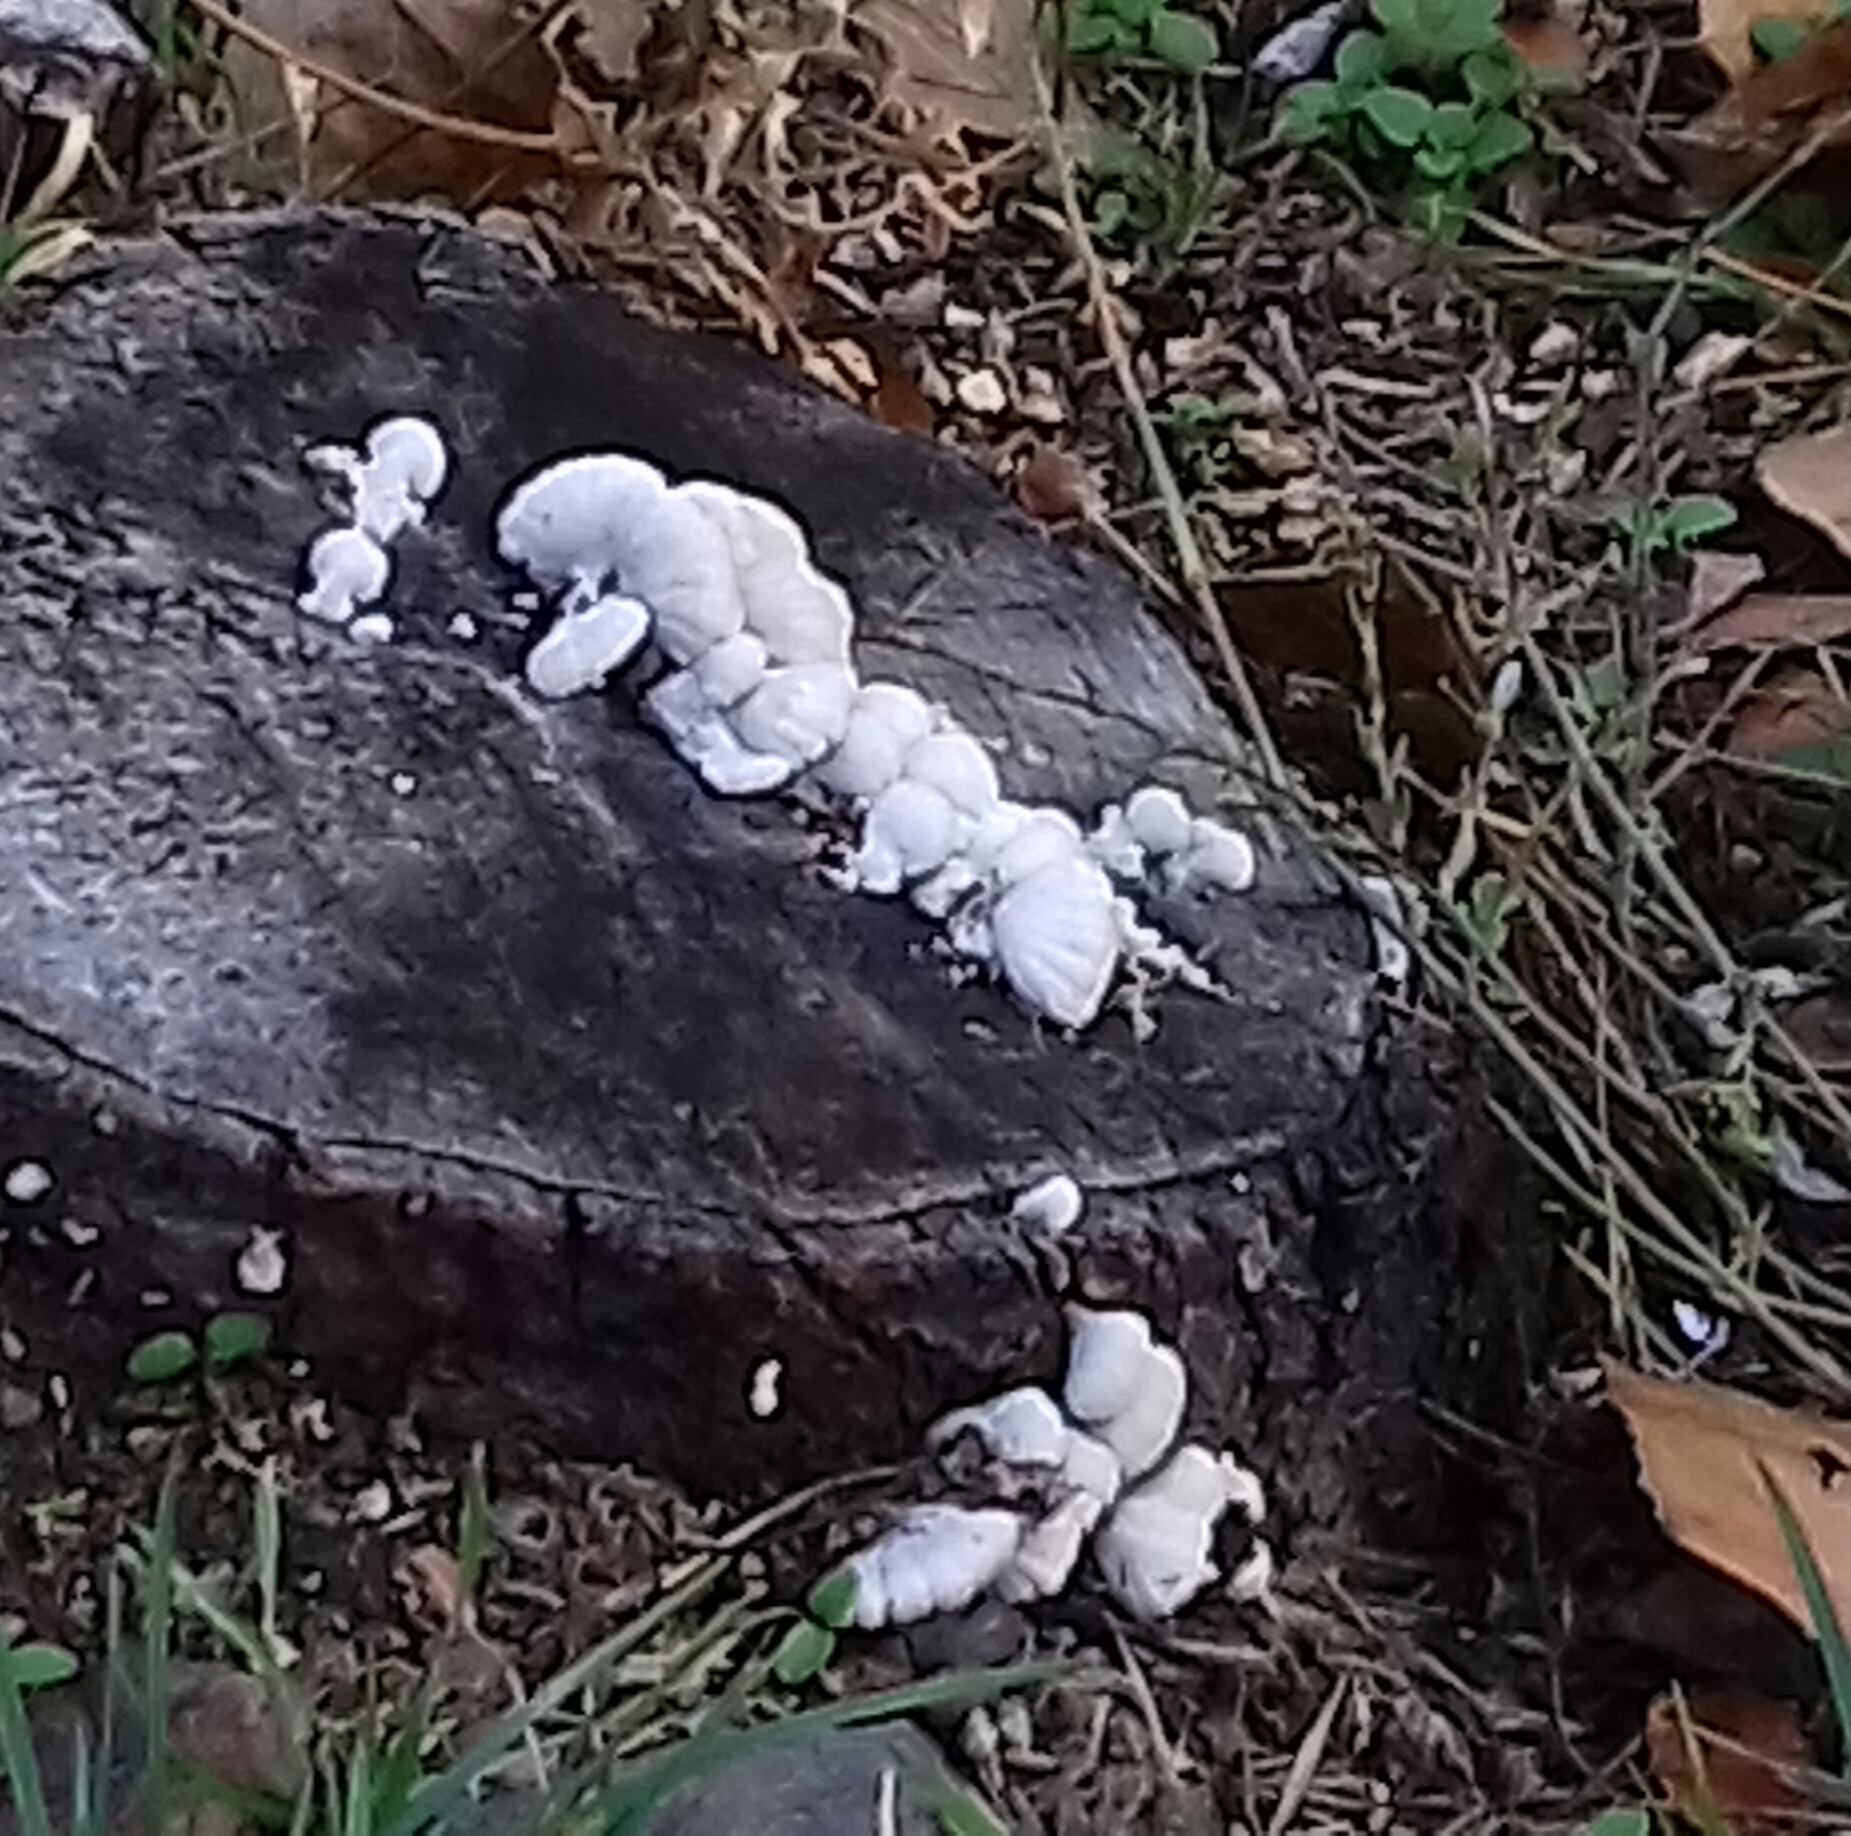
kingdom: Fungi
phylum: Basidiomycota
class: Agaricomycetes
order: Agaricales
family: Schizophyllaceae
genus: Schizophyllum
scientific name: Schizophyllum commune
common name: Common porecrust
